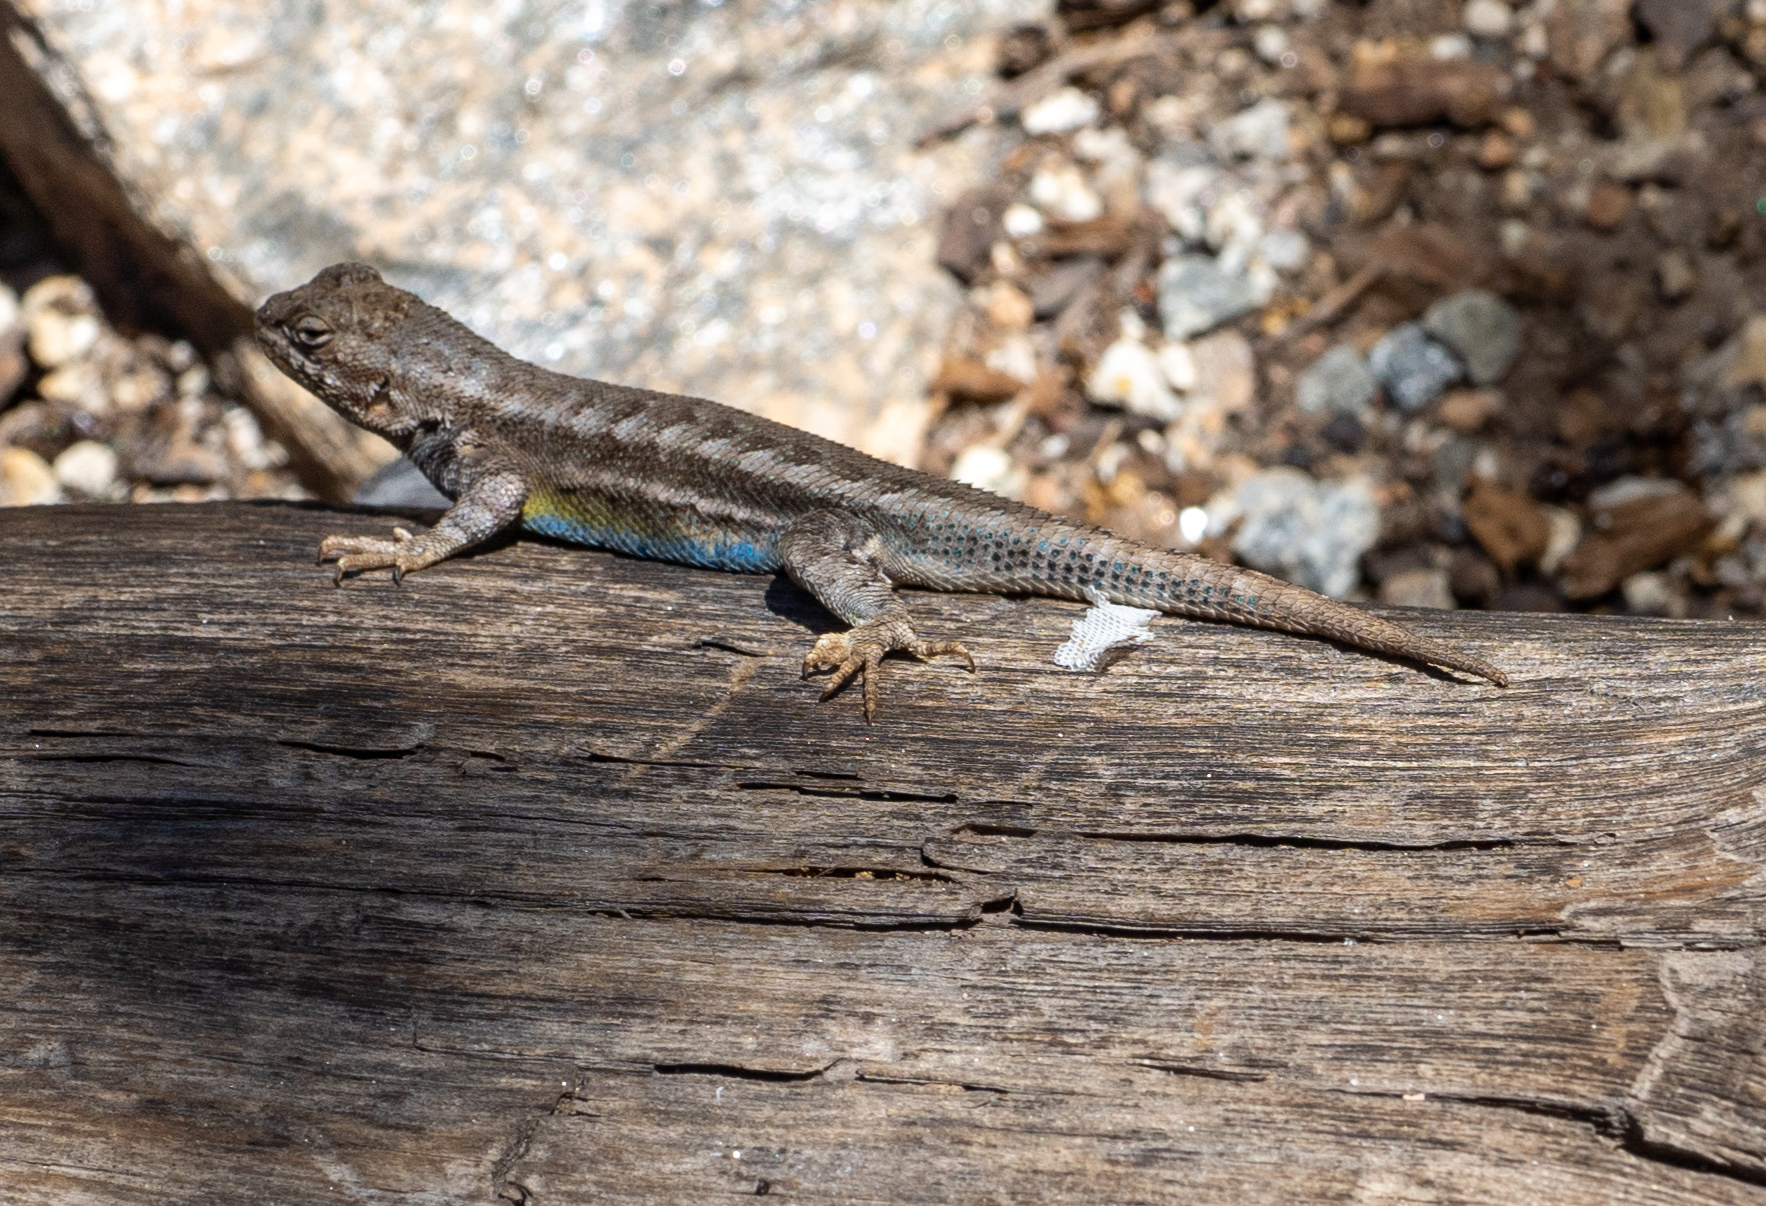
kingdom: Animalia
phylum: Chordata
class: Squamata
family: Phrynosomatidae
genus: Sceloporus
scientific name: Sceloporus graciosus
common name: Sagebrush lizard
